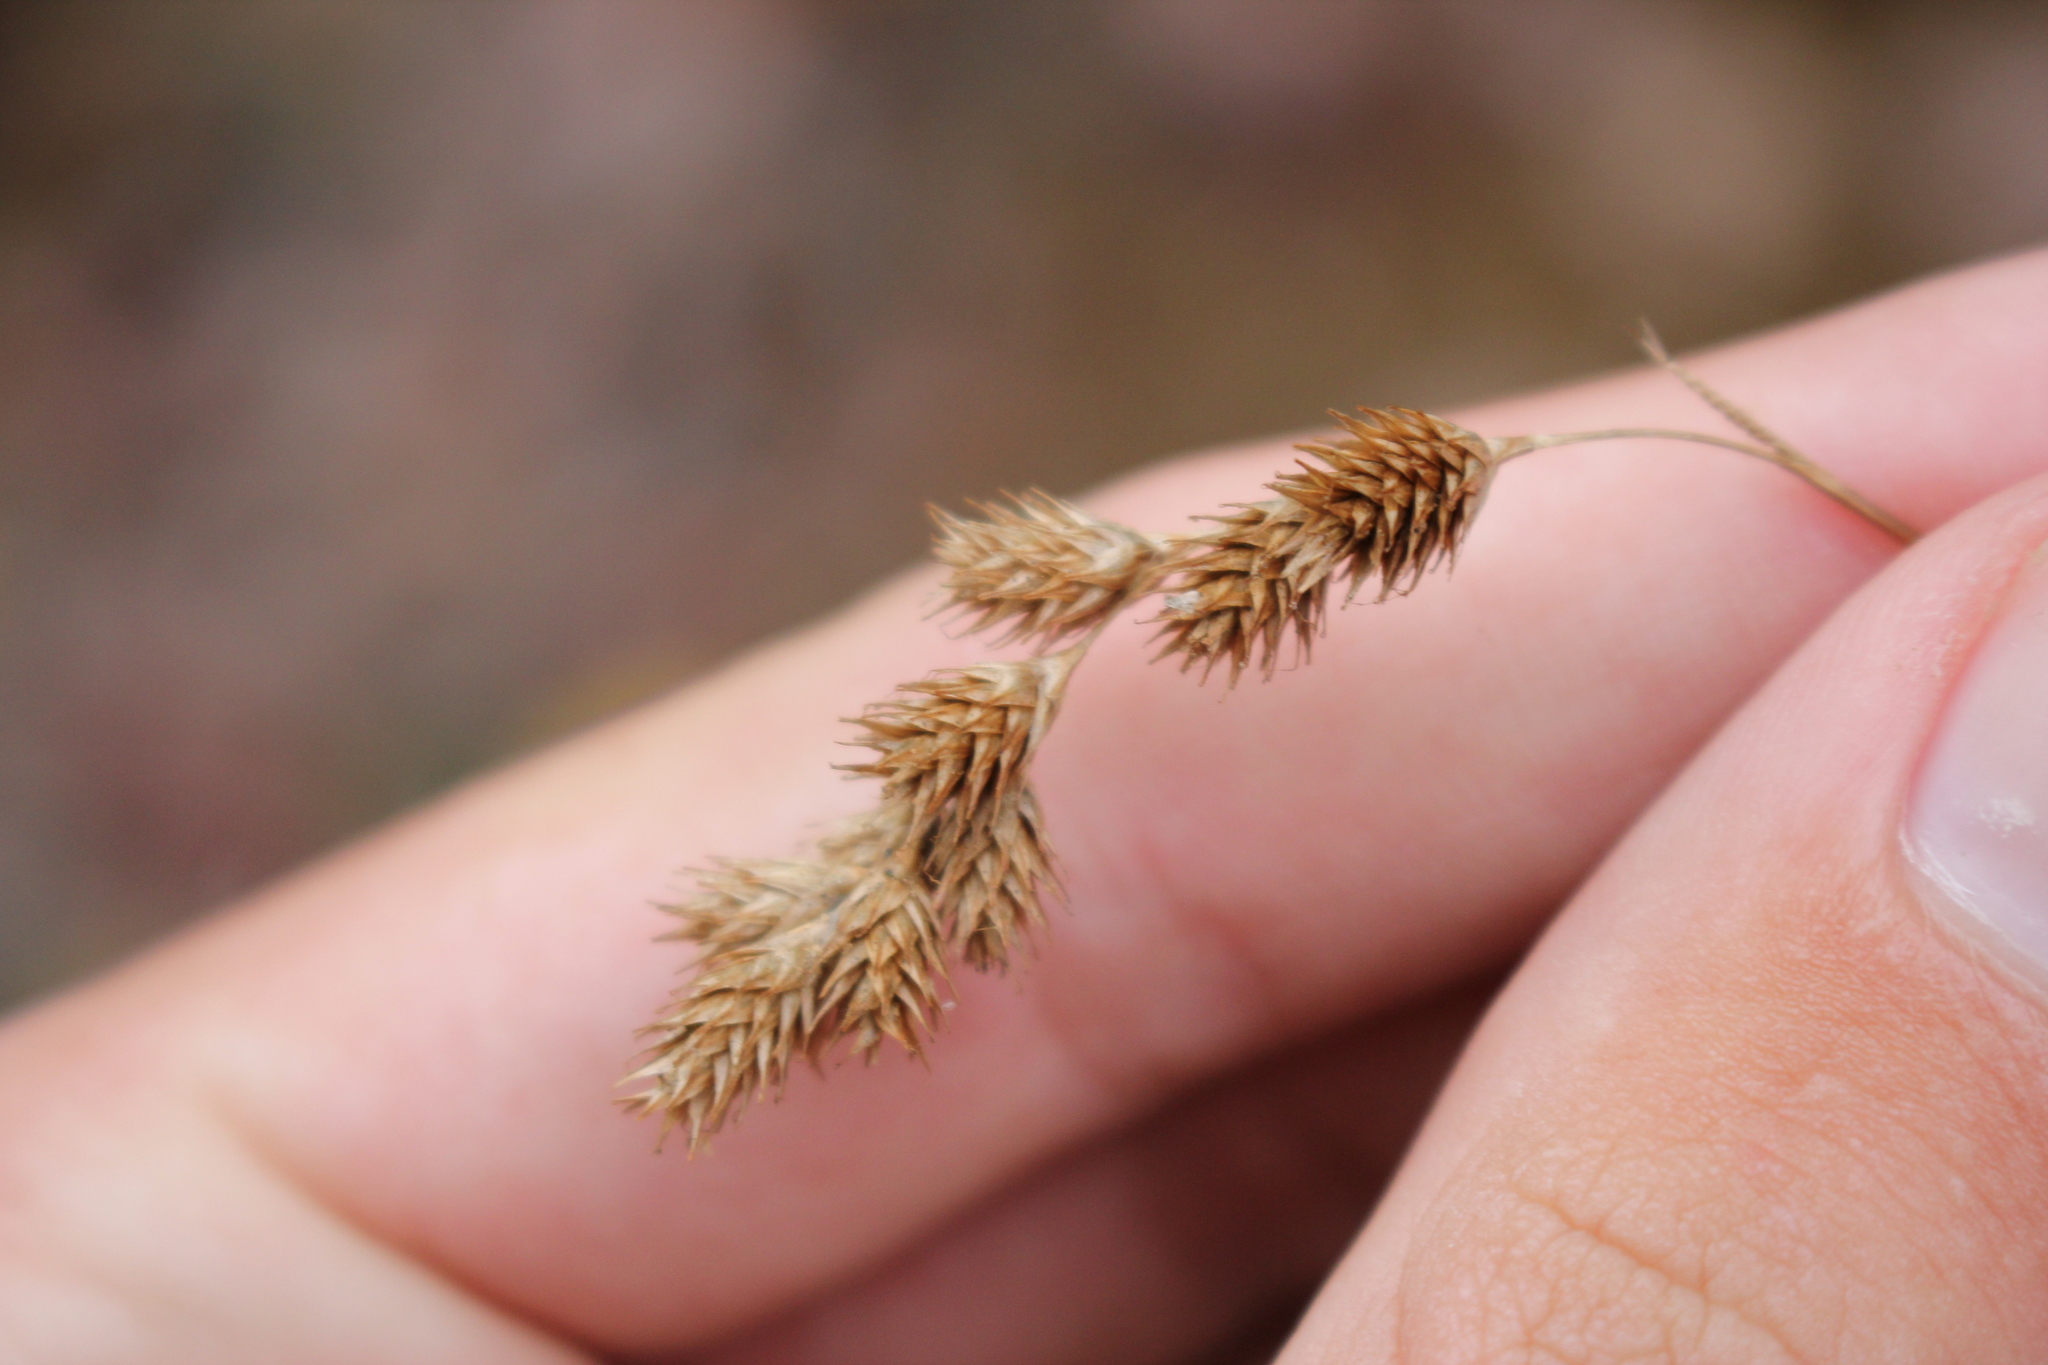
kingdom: Plantae
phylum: Tracheophyta
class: Liliopsida
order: Poales
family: Cyperaceae
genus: Carex
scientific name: Carex projecta
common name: Loose-headed oval sedge
